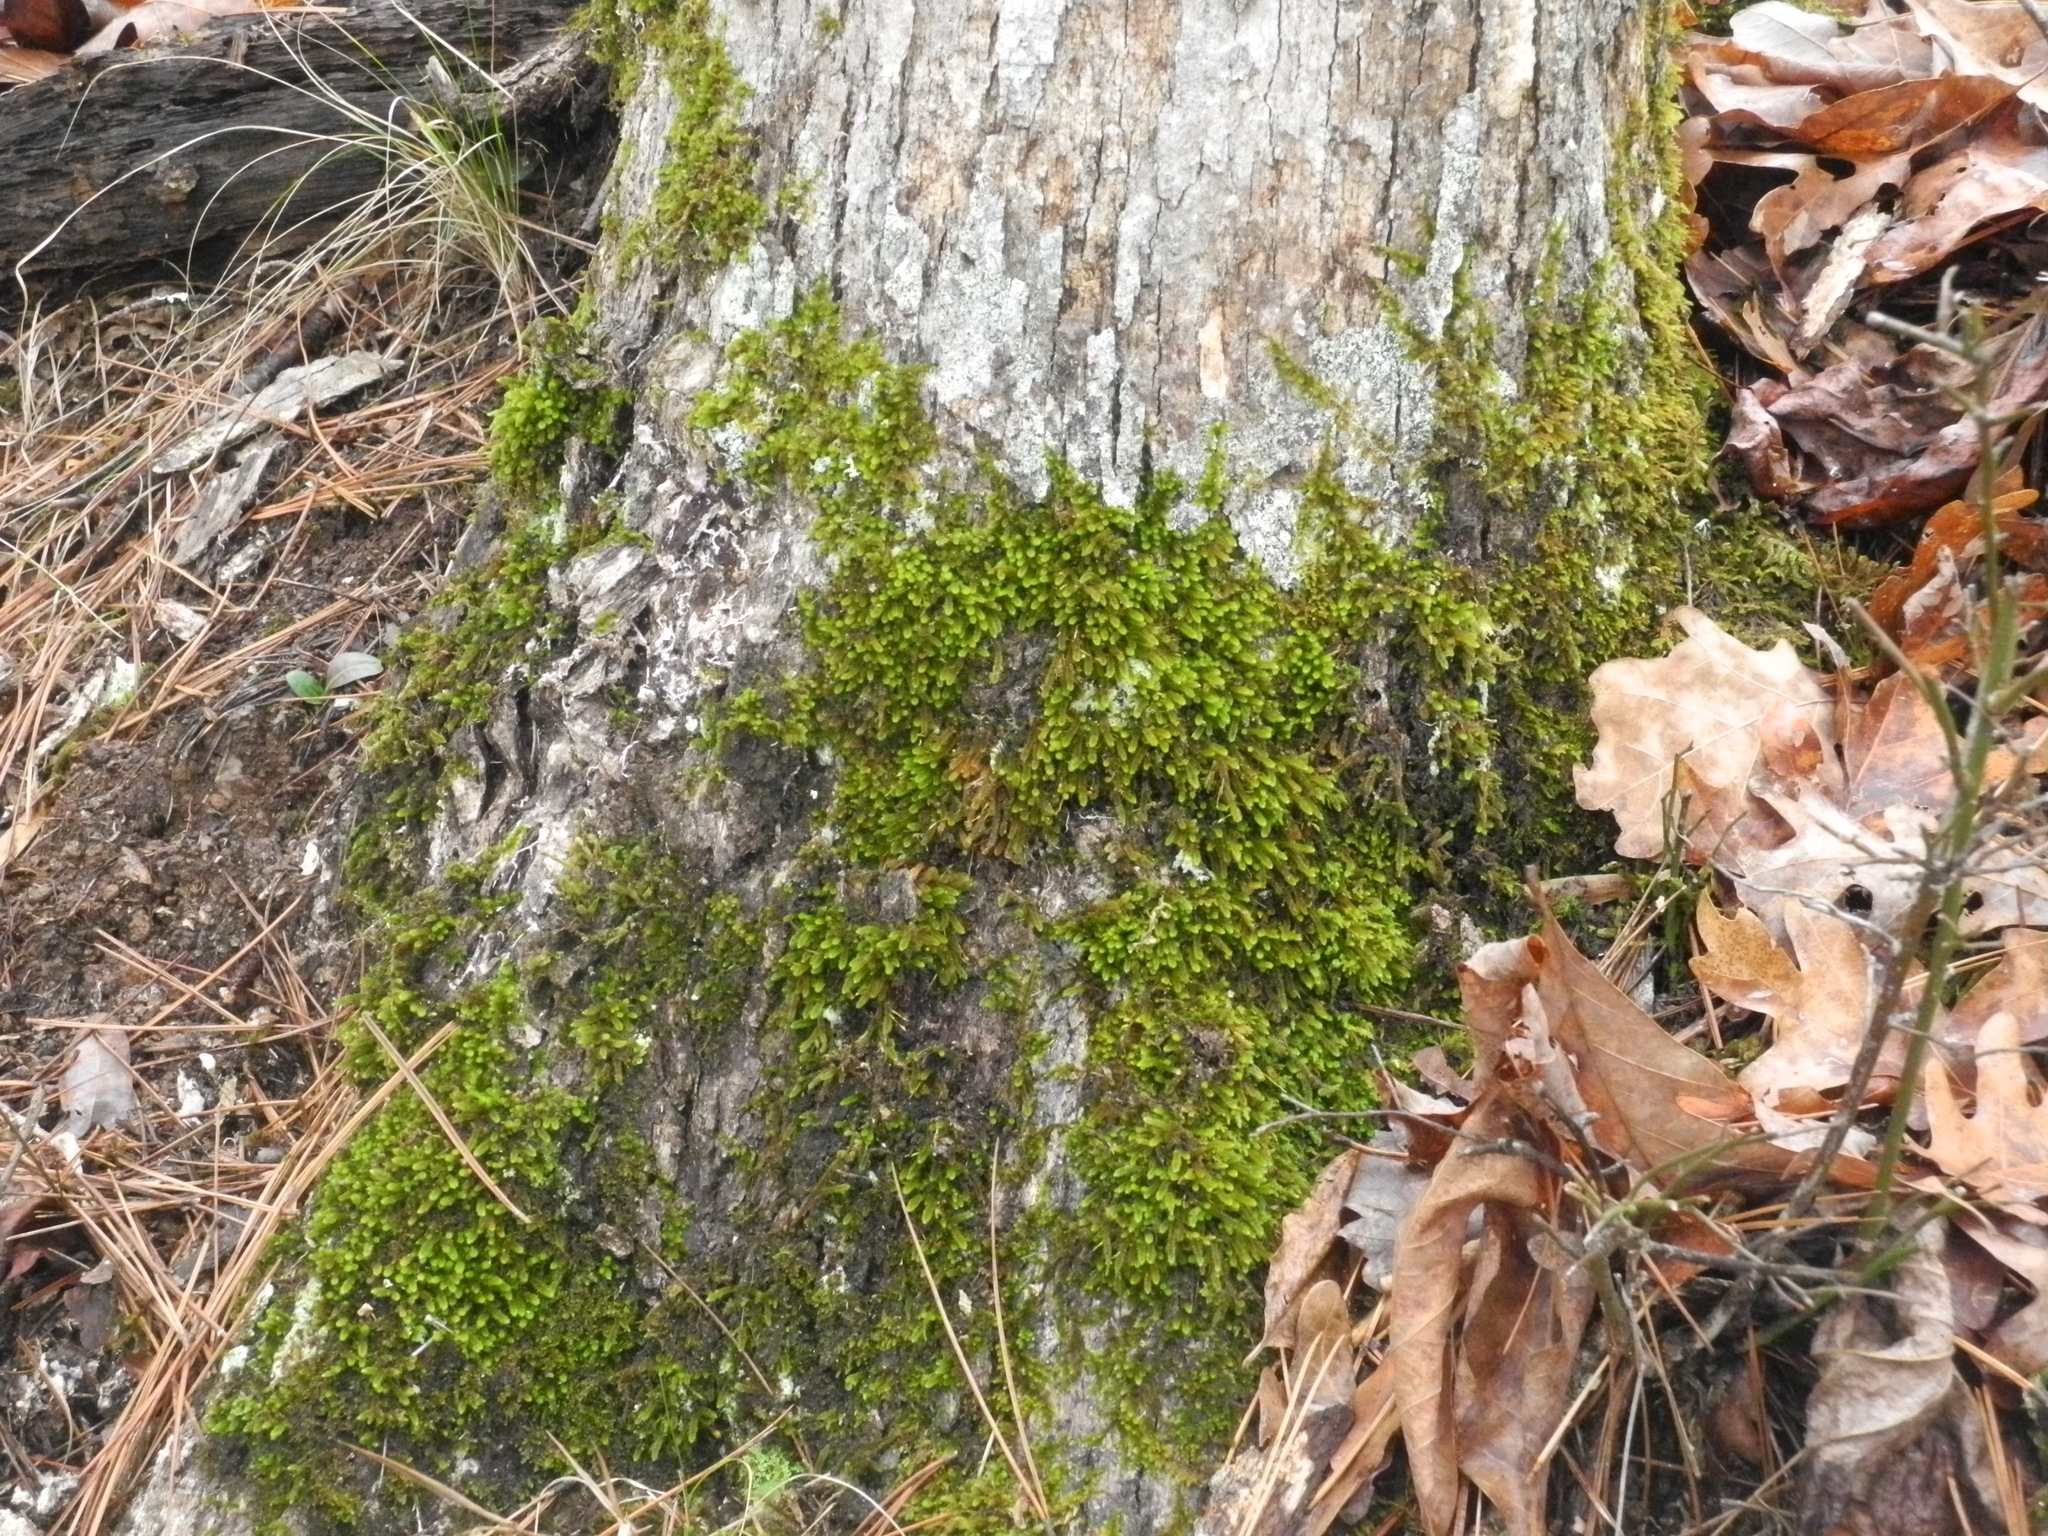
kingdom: Plantae
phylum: Bryophyta
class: Bryopsida
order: Hypnales
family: Leucodontaceae
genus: Leucodon
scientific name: Leucodon julaceus
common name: Smooth hook moss
